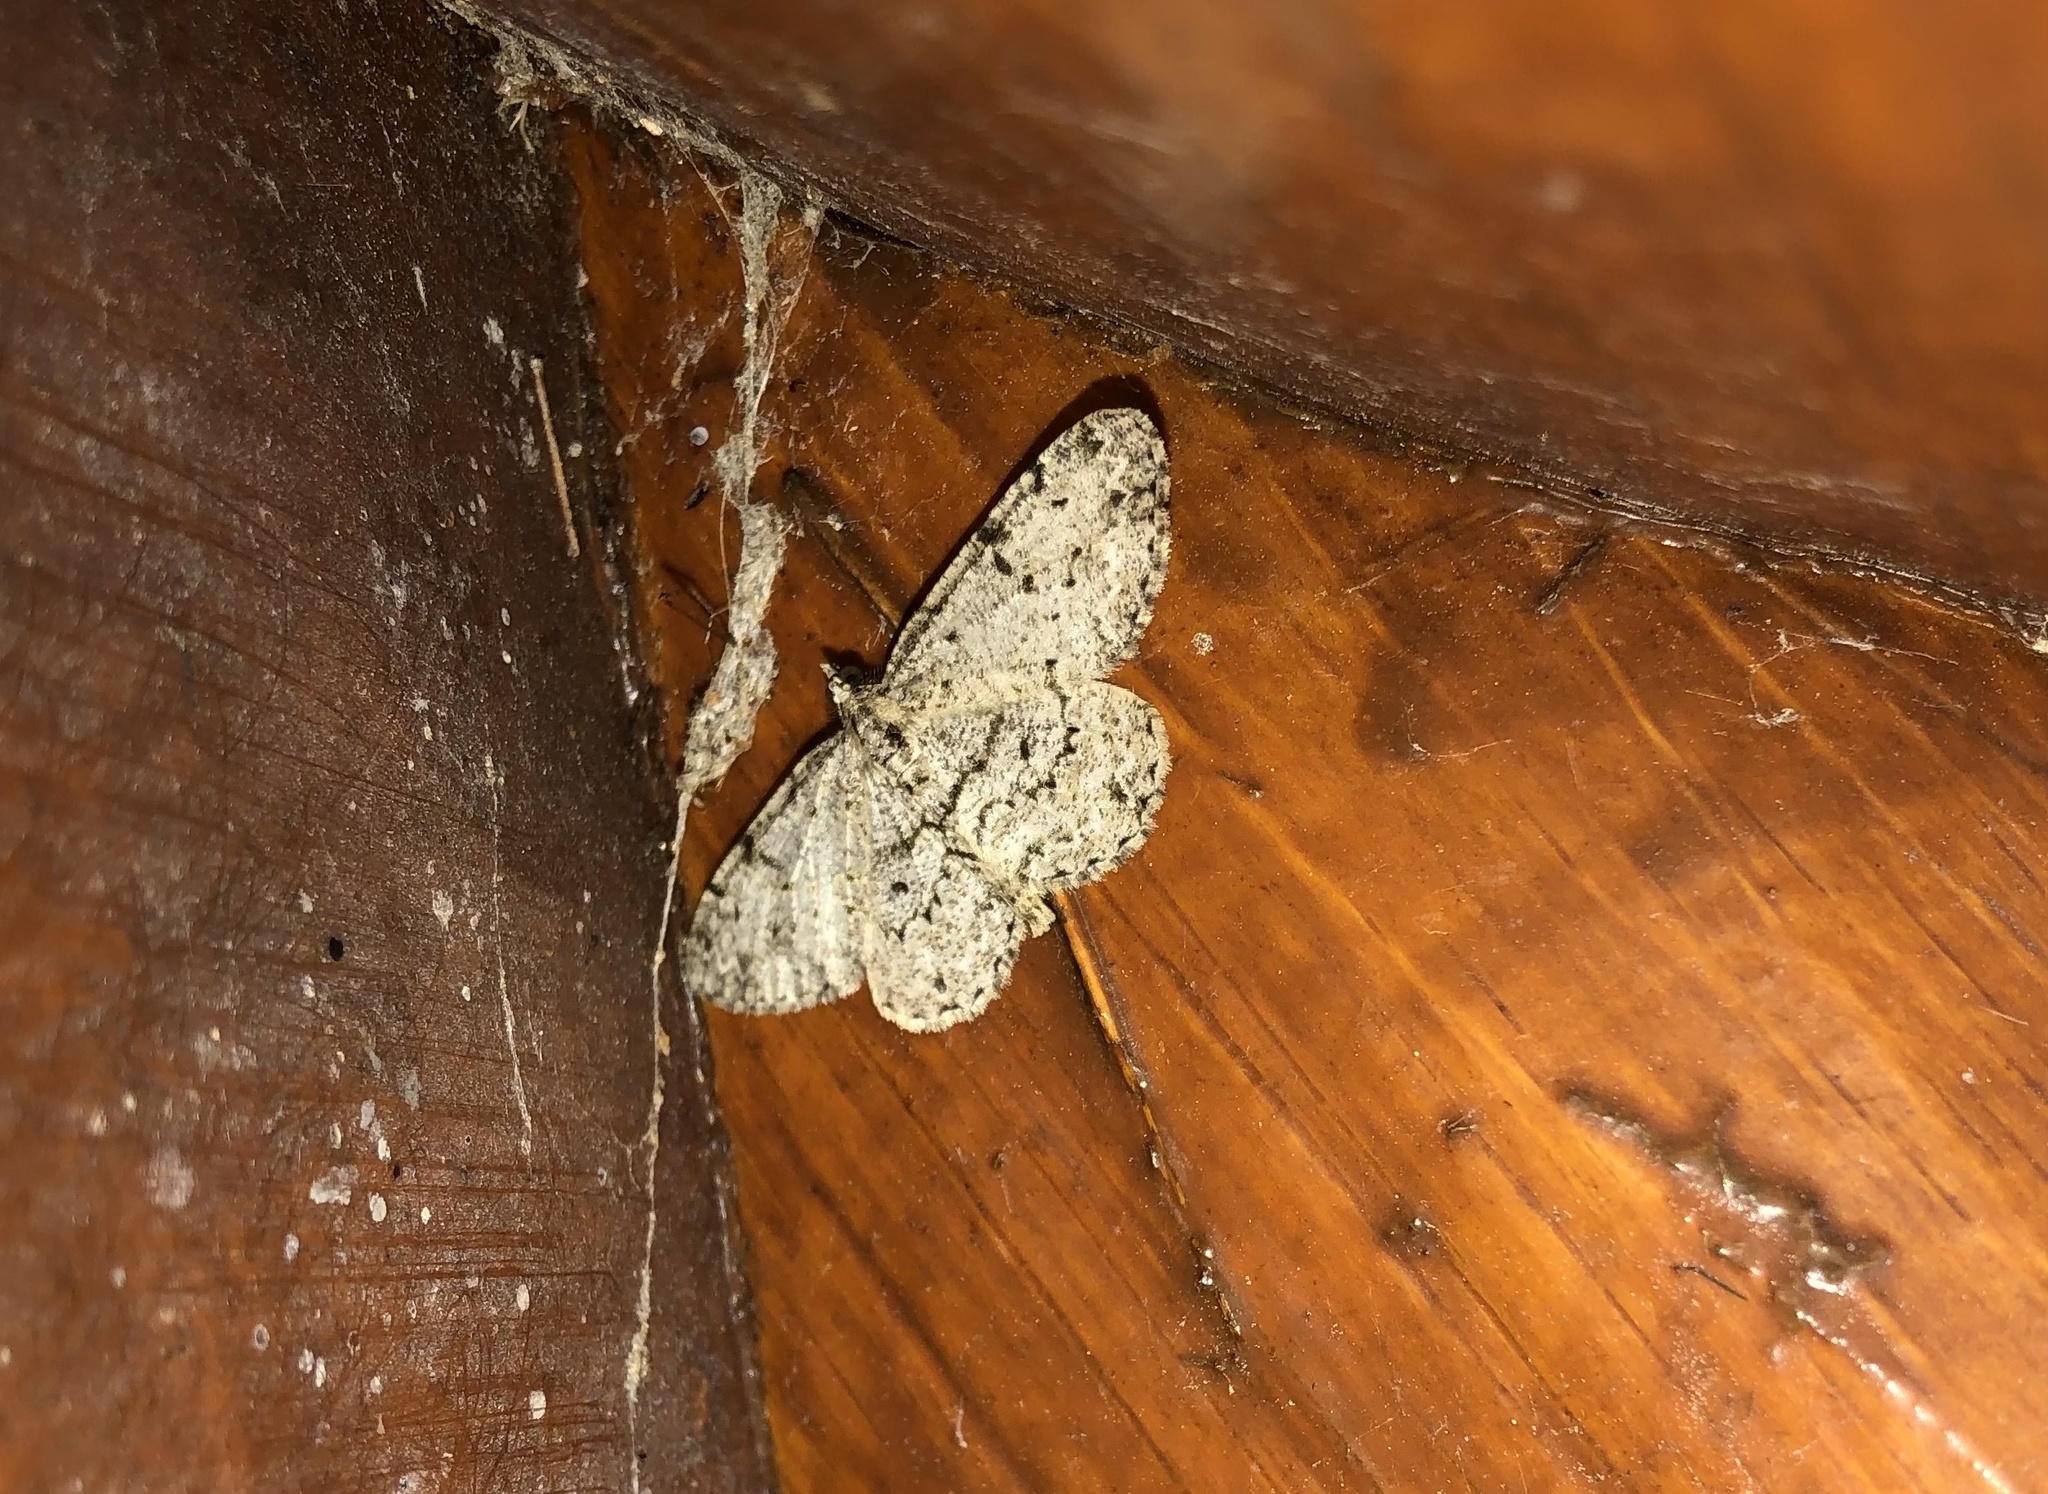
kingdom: Animalia
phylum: Arthropoda
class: Insecta
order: Lepidoptera
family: Geometridae
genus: Iridopsis
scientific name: Iridopsis ephyraria
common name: Pale-winged gray
